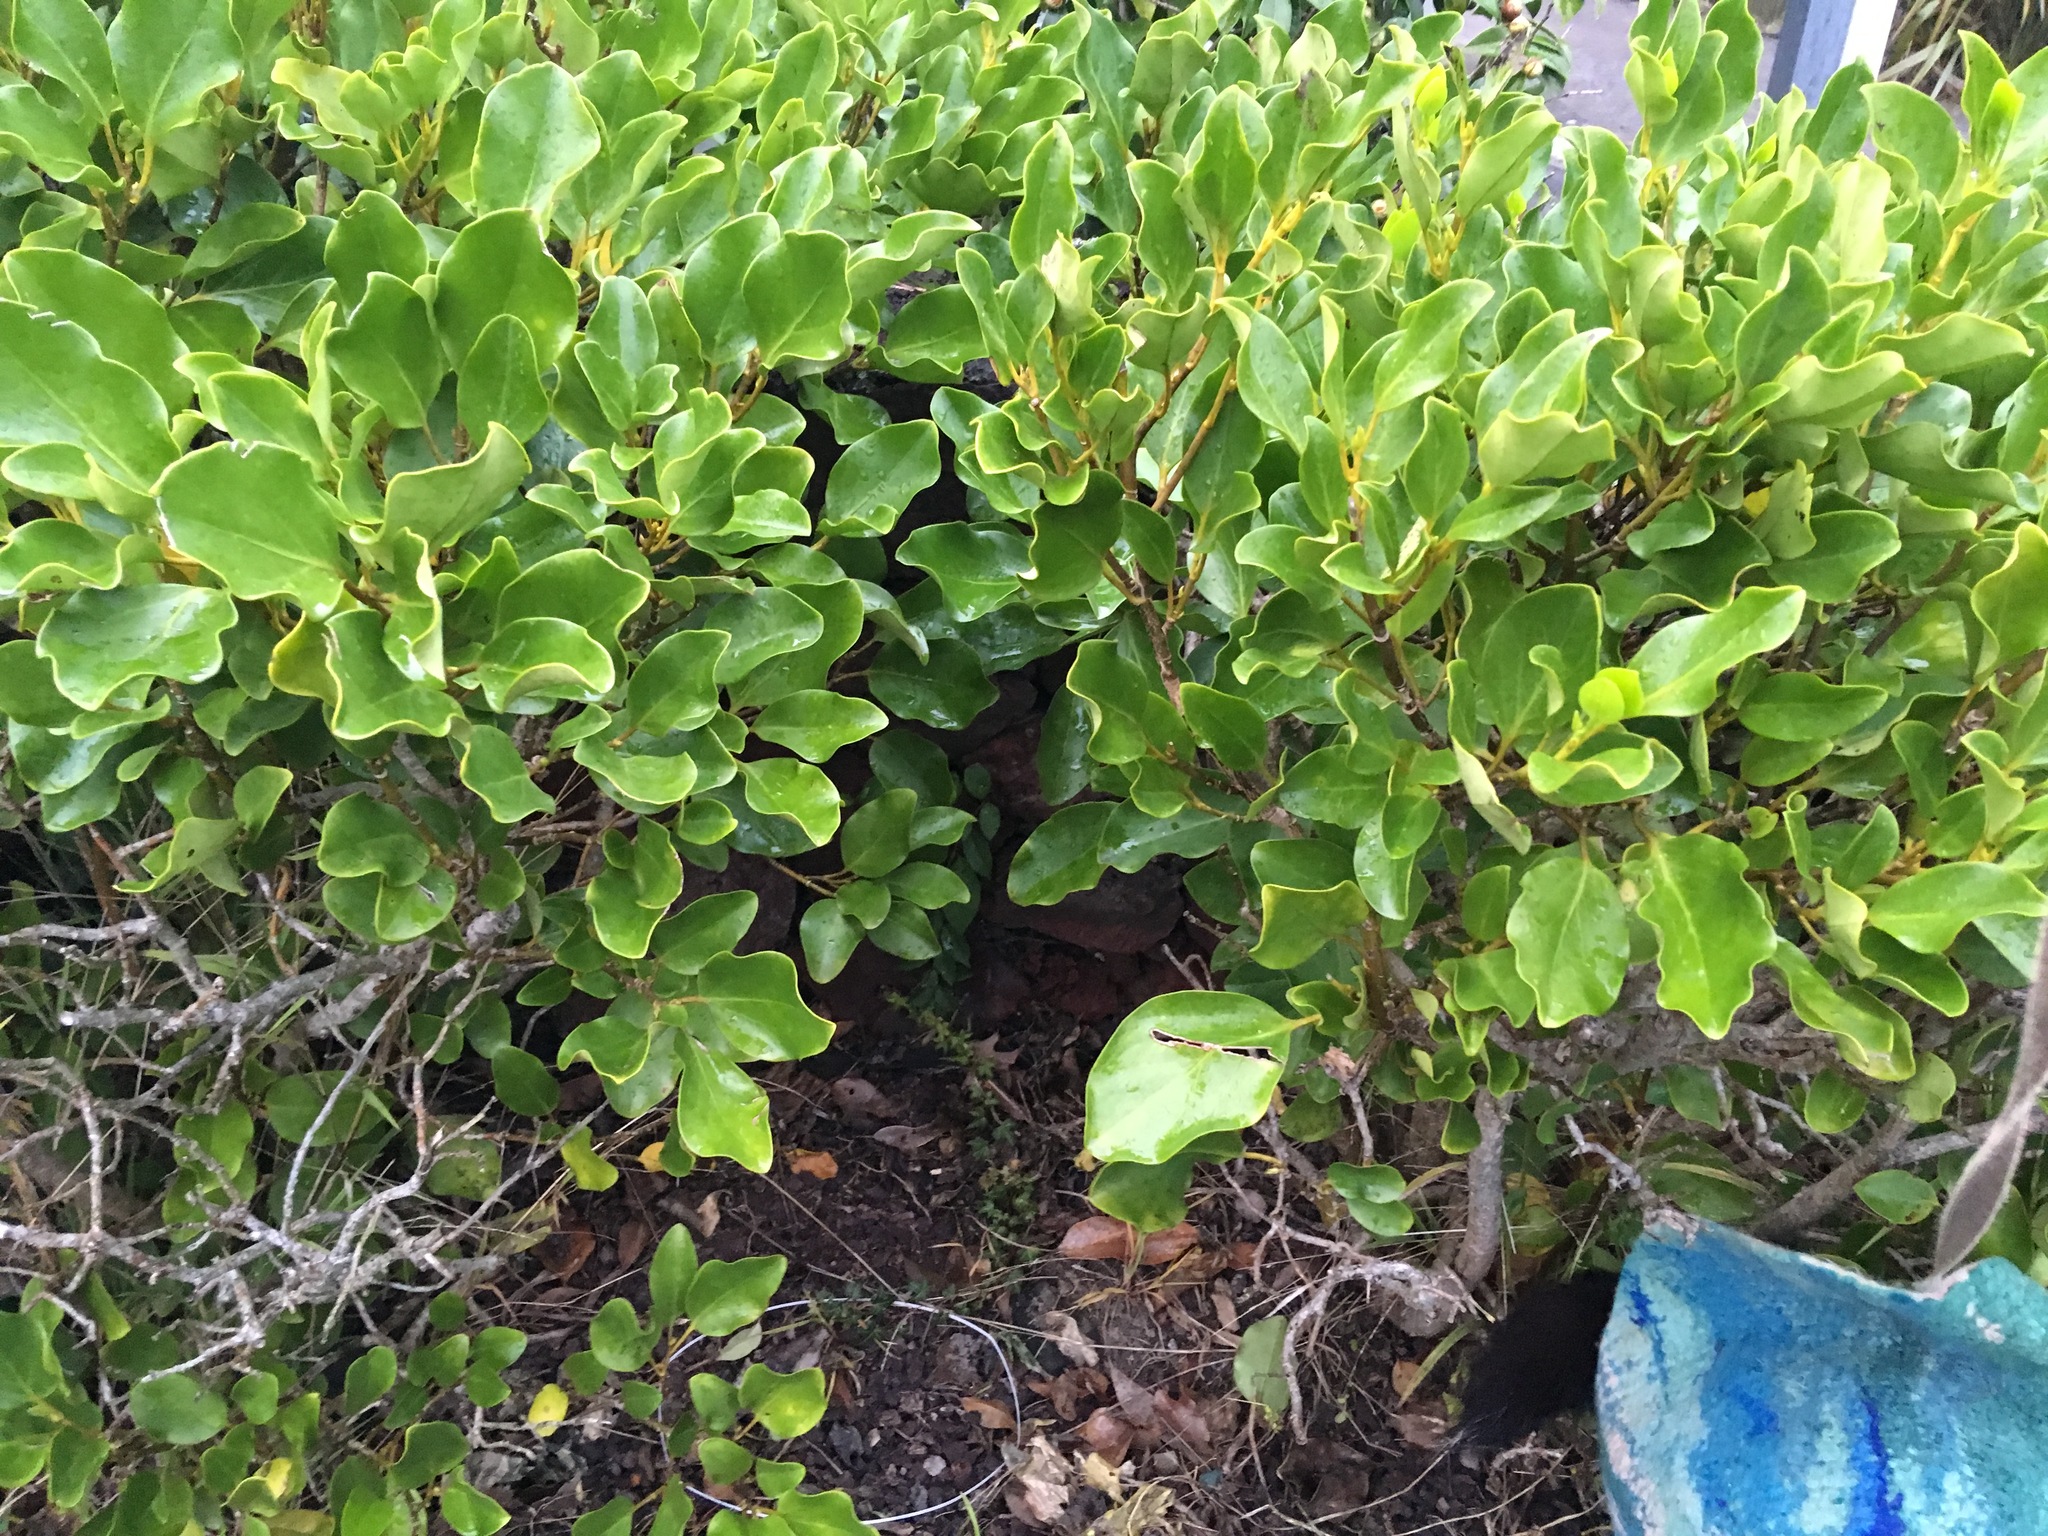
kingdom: Plantae
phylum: Tracheophyta
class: Magnoliopsida
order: Lamiales
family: Oleaceae
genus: Ligustrum
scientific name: Ligustrum lucidum
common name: Glossy privet
